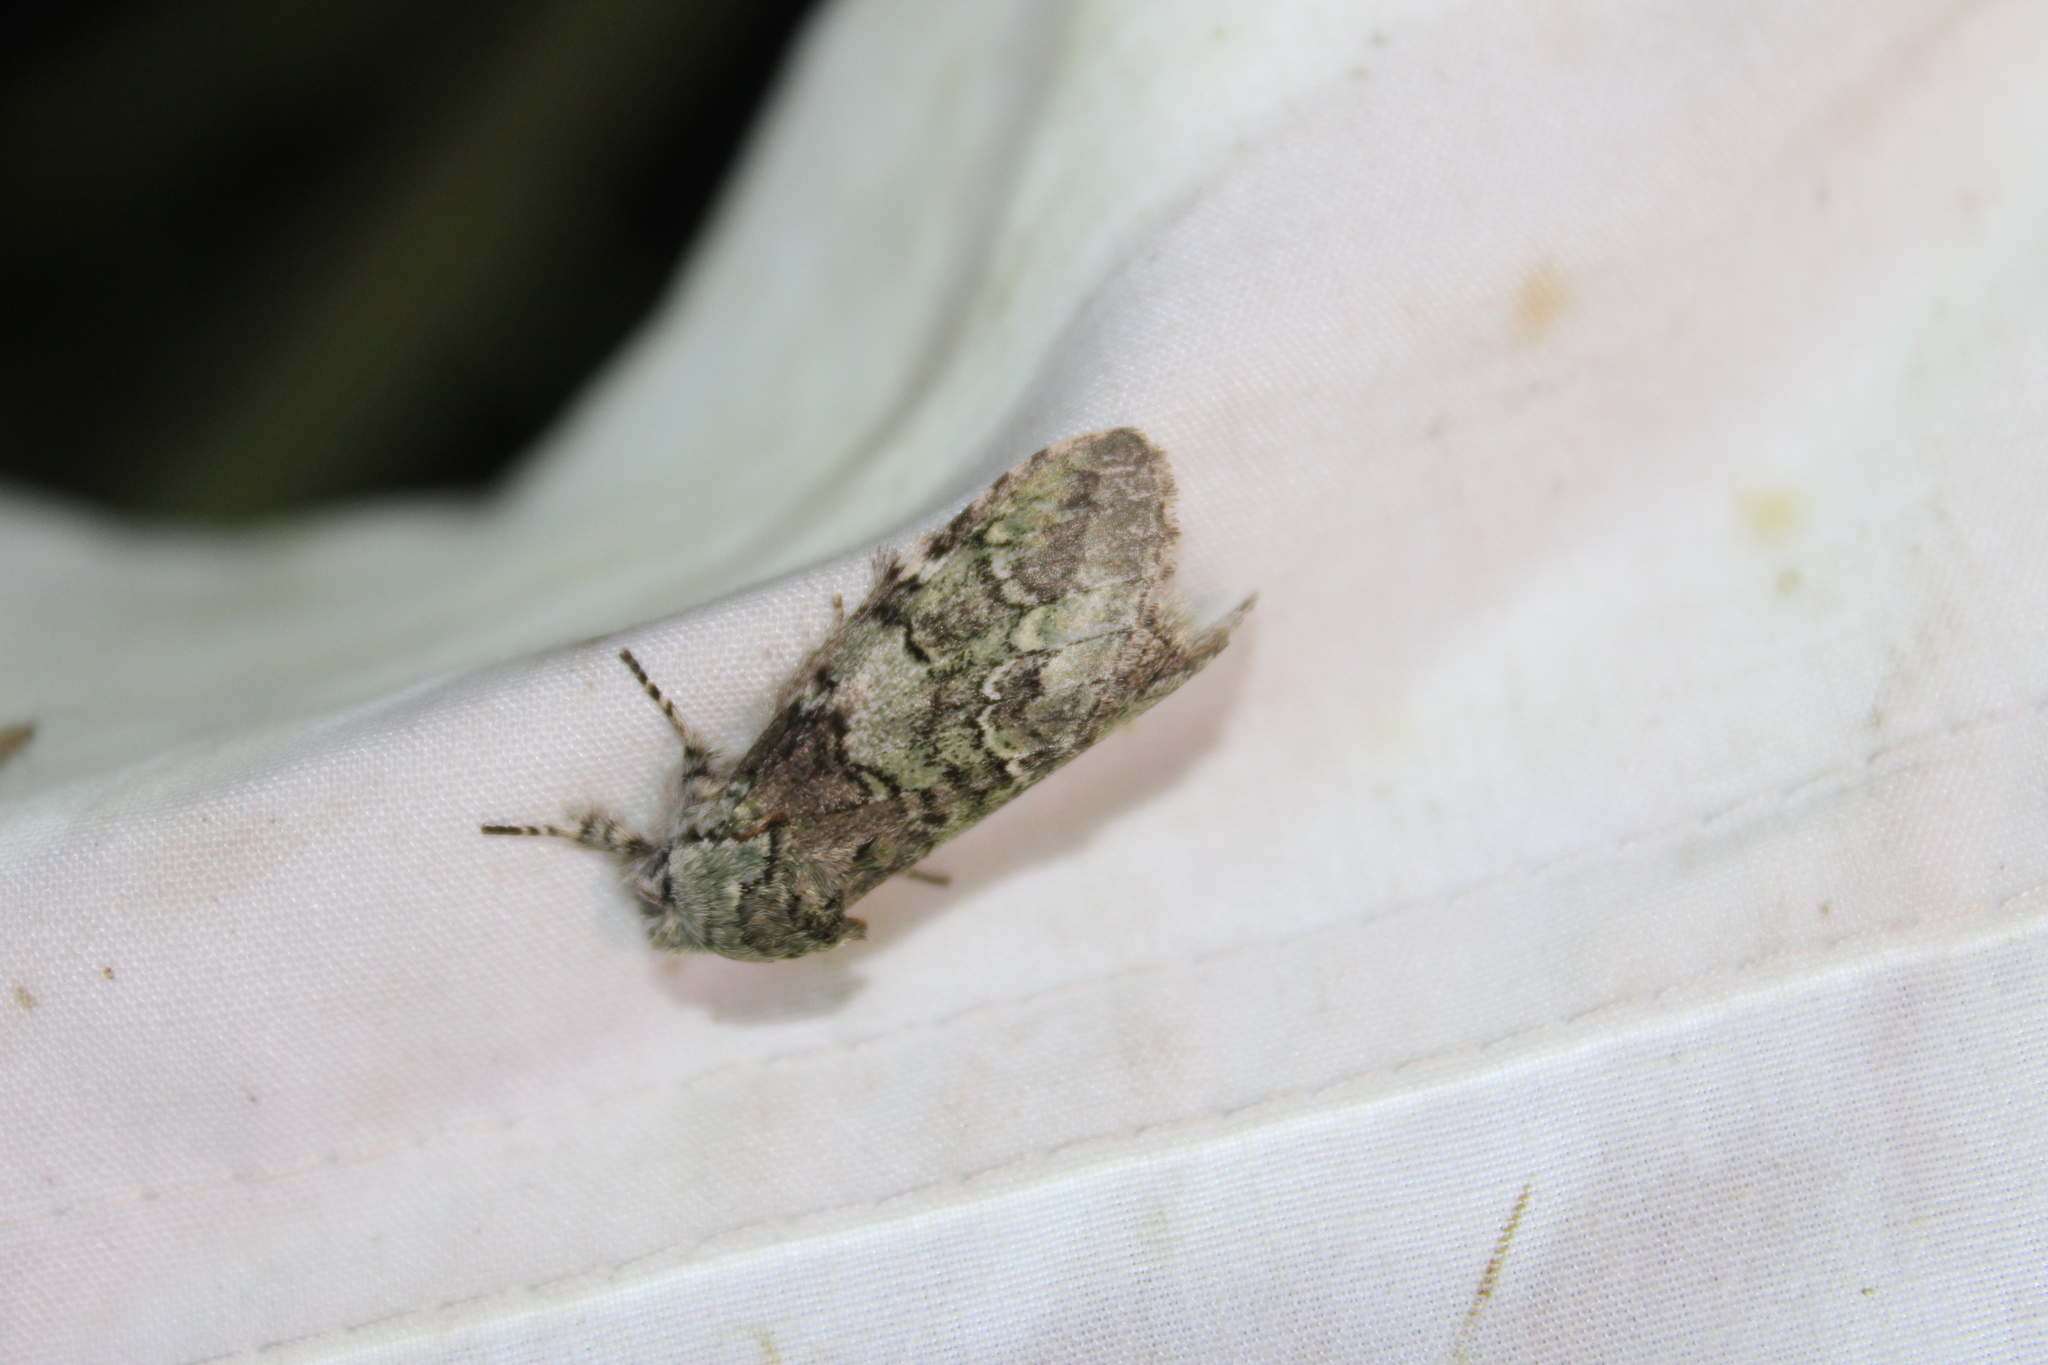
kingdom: Animalia
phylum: Arthropoda
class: Insecta
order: Lepidoptera
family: Notodontidae
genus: Macrurocampa
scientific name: Macrurocampa marthesia
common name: Mottled prominent
